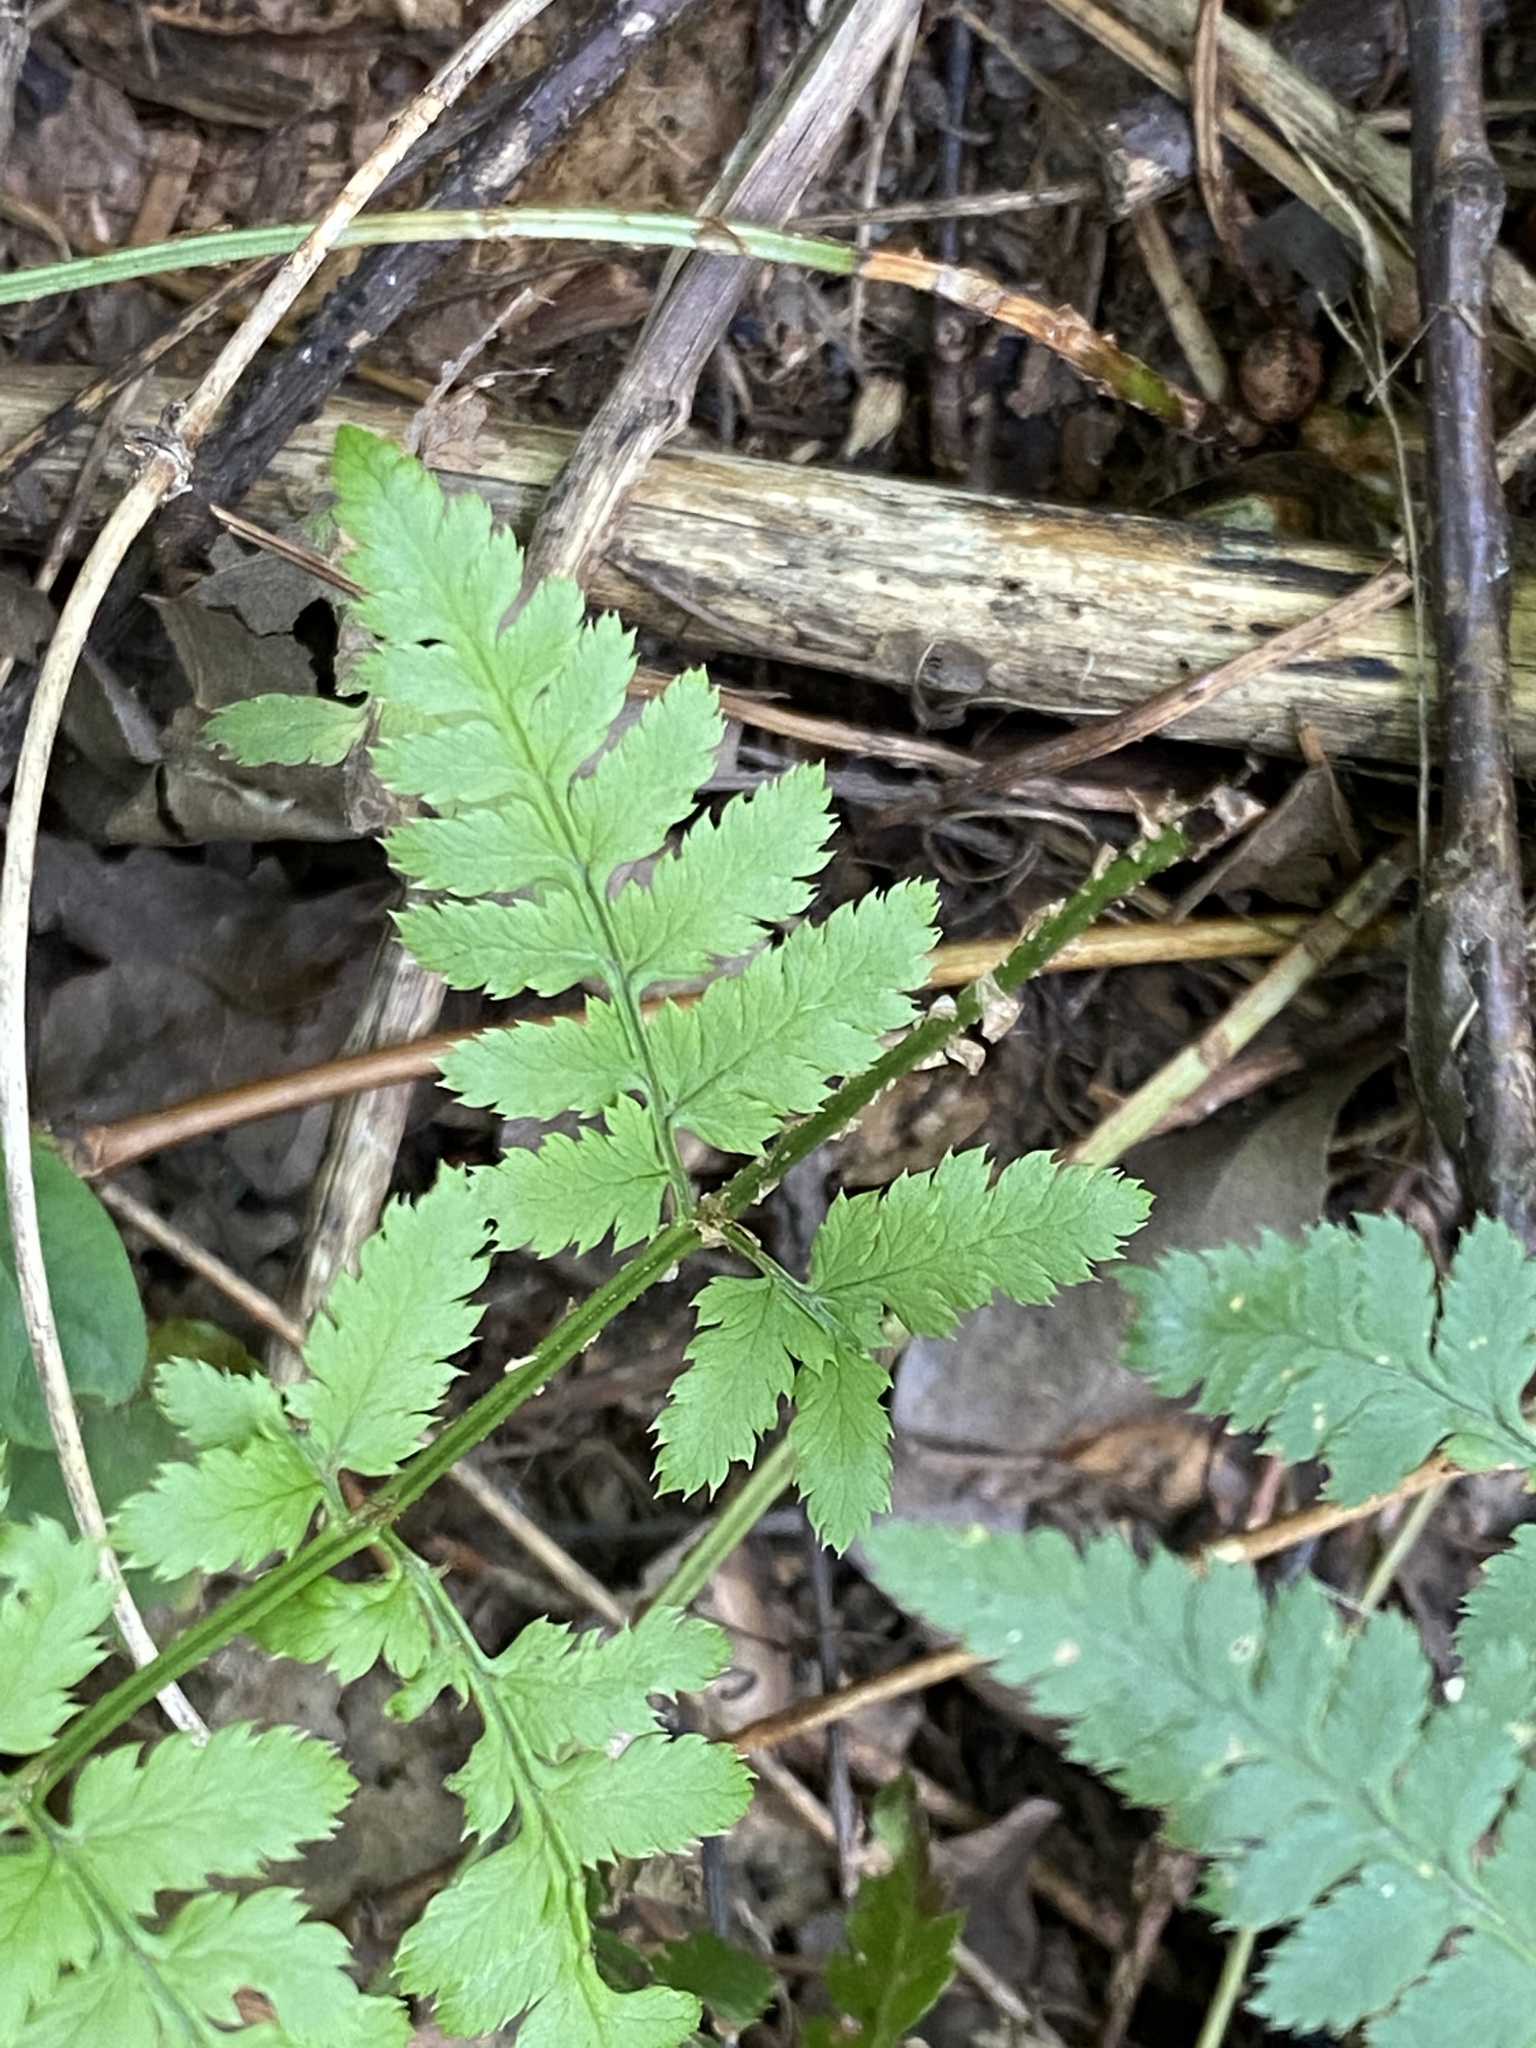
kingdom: Plantae
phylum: Tracheophyta
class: Polypodiopsida
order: Polypodiales
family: Dryopteridaceae
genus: Dryopteris
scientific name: Dryopteris carthusiana
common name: Narrow buckler-fern
